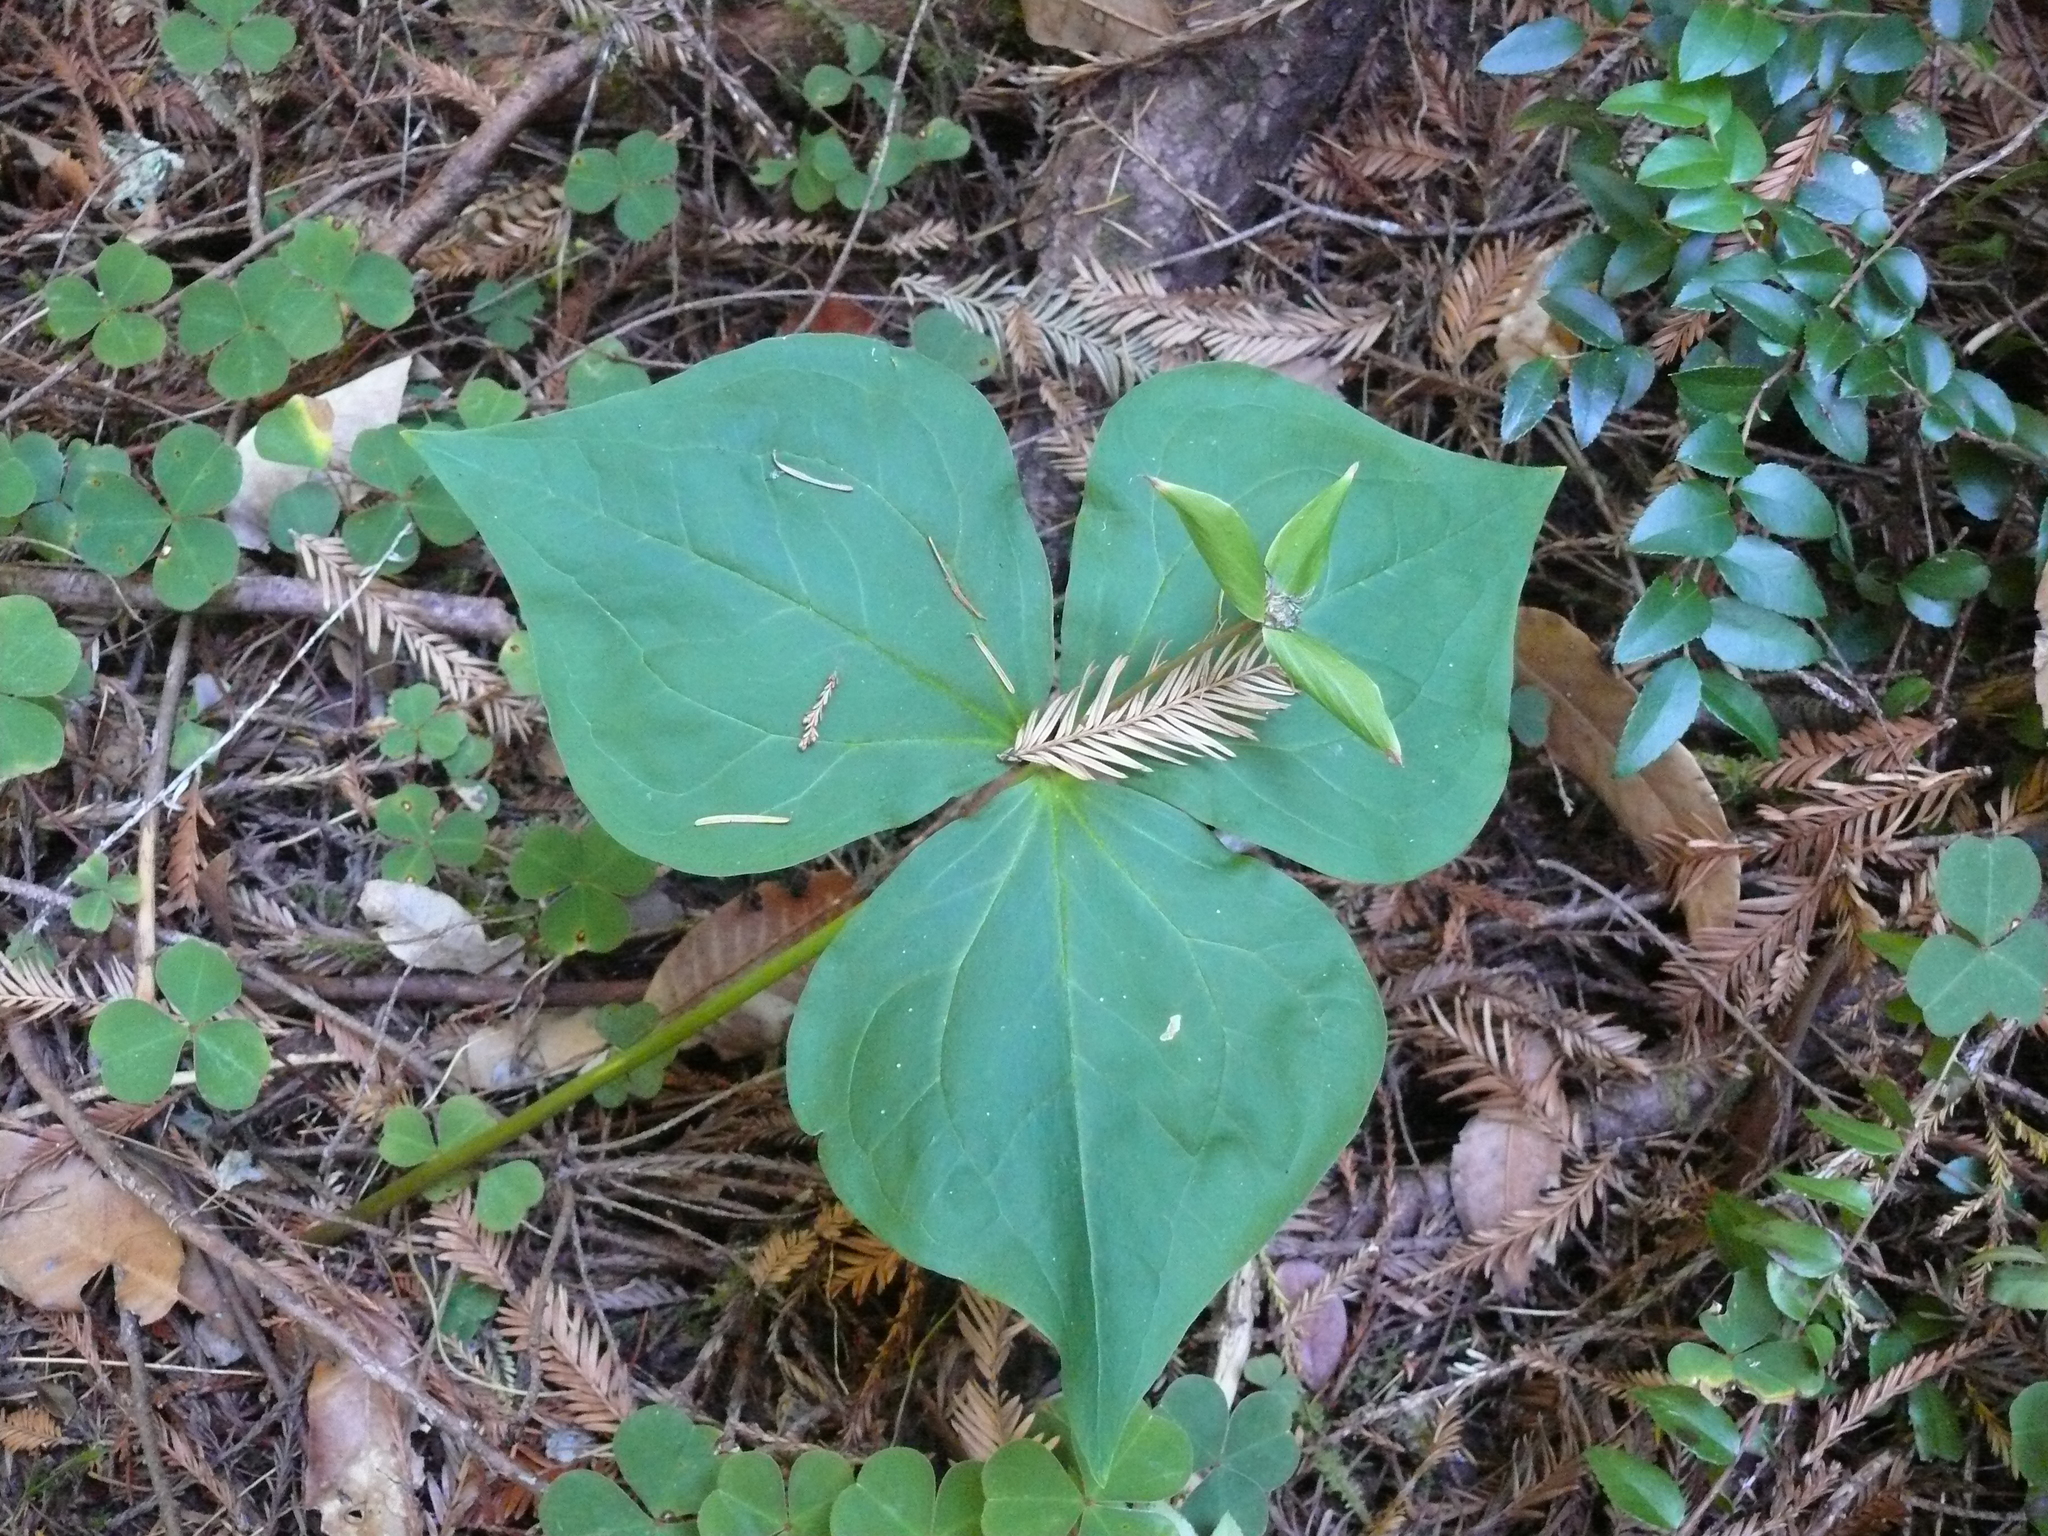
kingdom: Plantae
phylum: Tracheophyta
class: Liliopsida
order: Liliales
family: Melanthiaceae
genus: Trillium
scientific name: Trillium ovatum
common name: Pacific trillium
